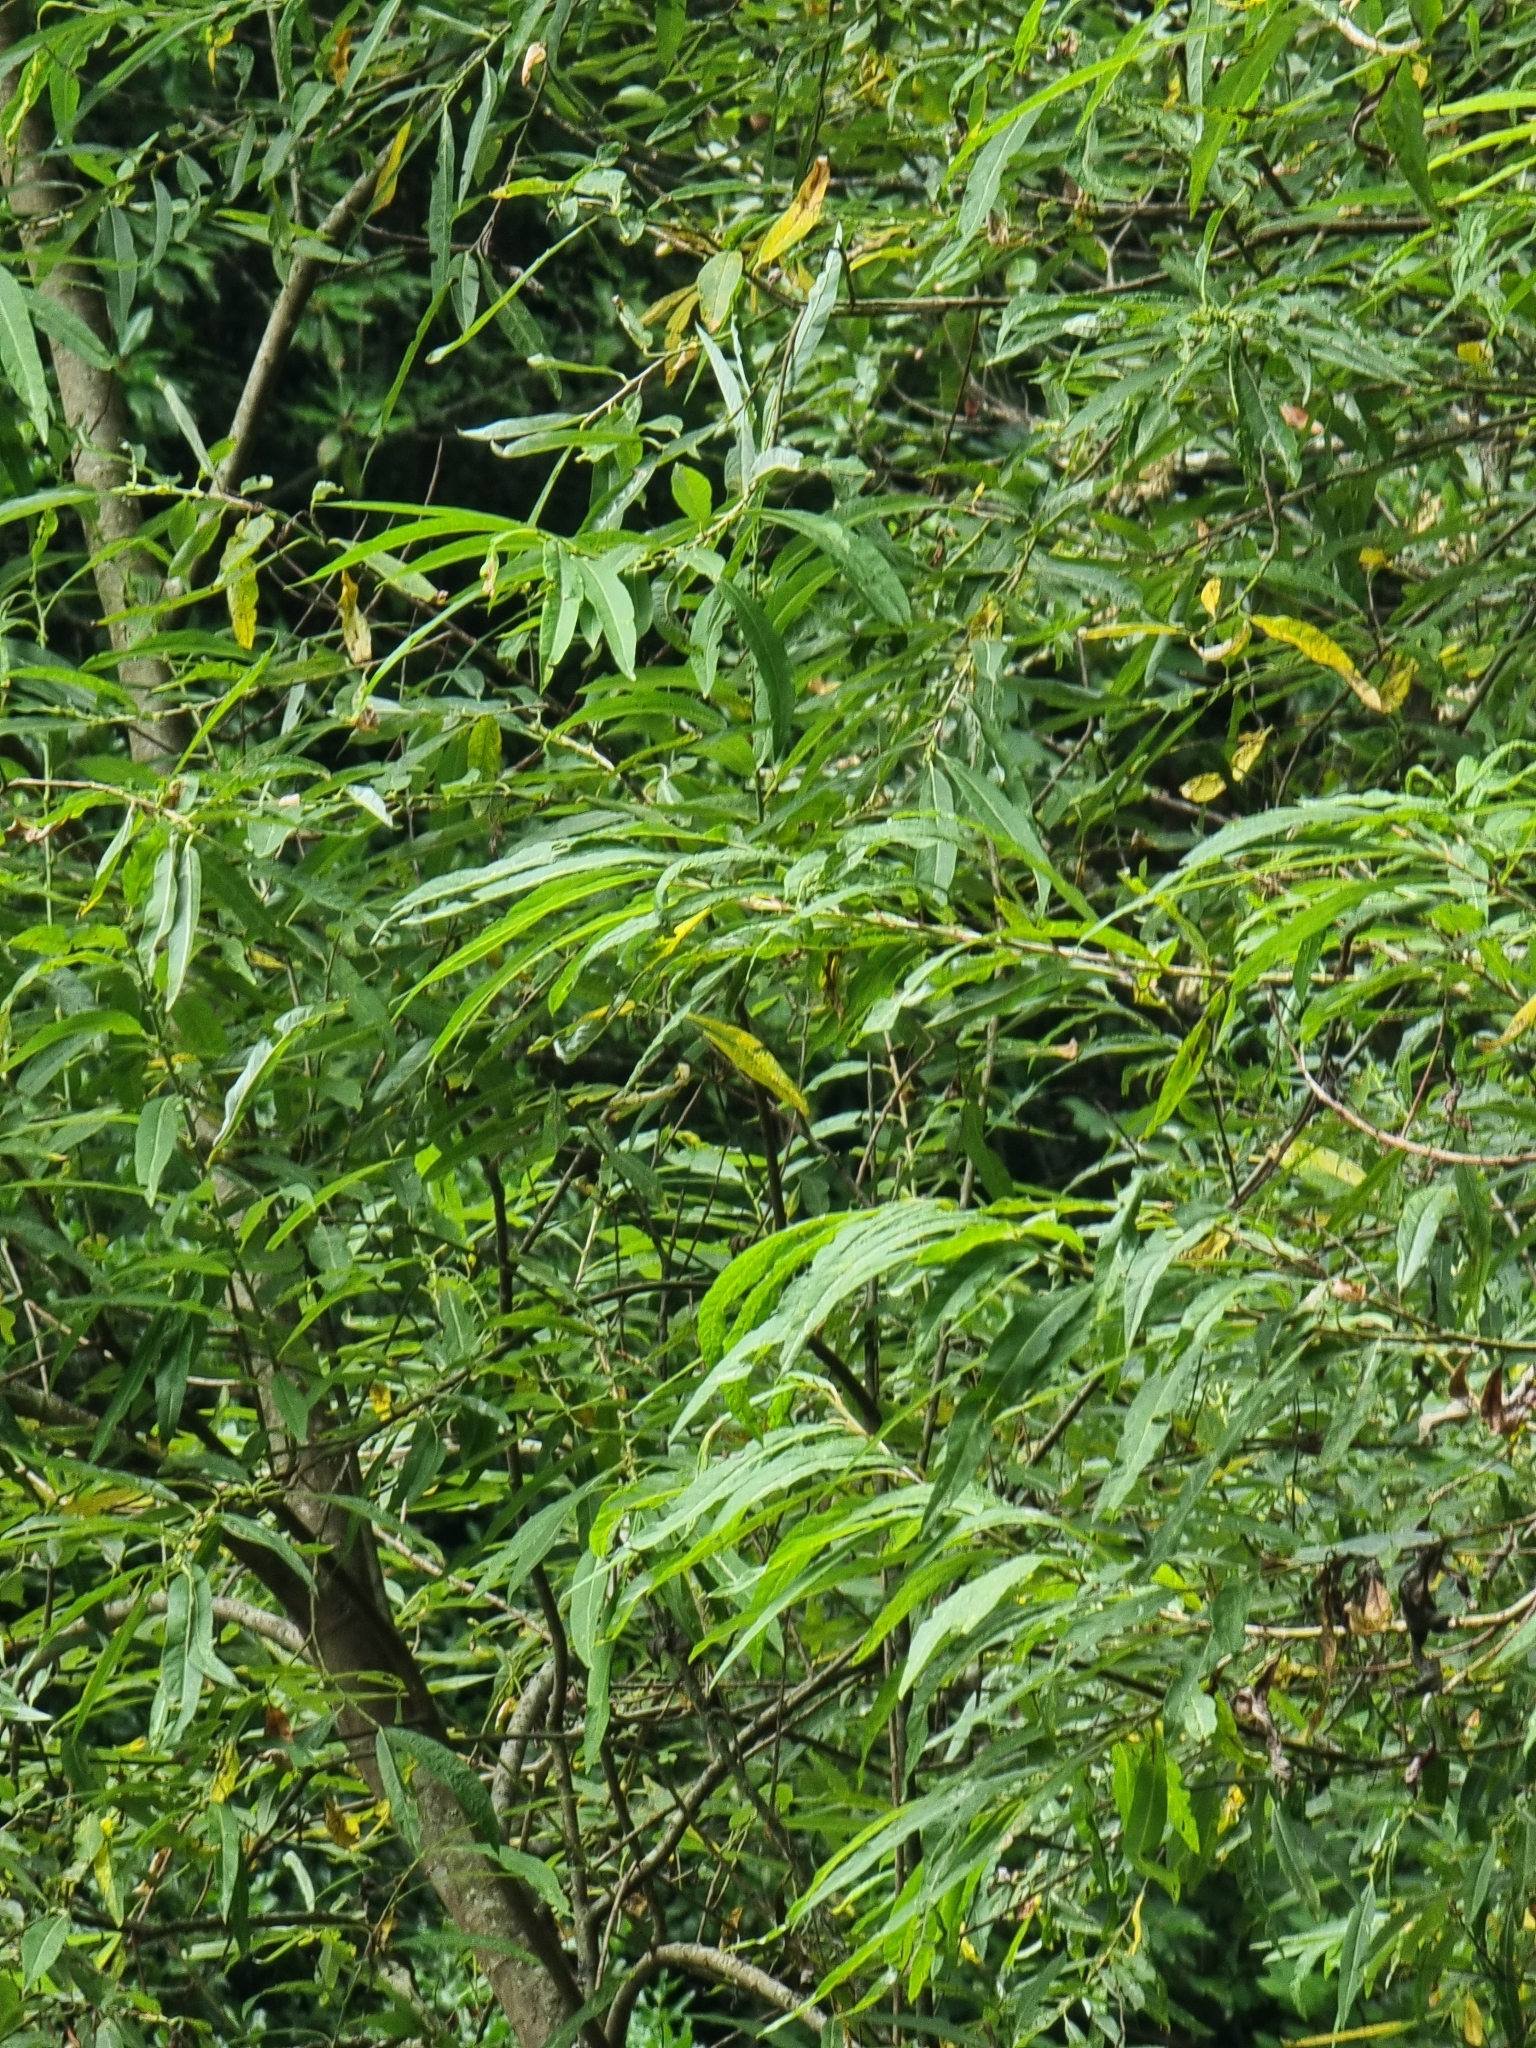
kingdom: Plantae
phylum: Tracheophyta
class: Magnoliopsida
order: Malpighiales
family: Salicaceae
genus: Salix
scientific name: Salix canariensis
